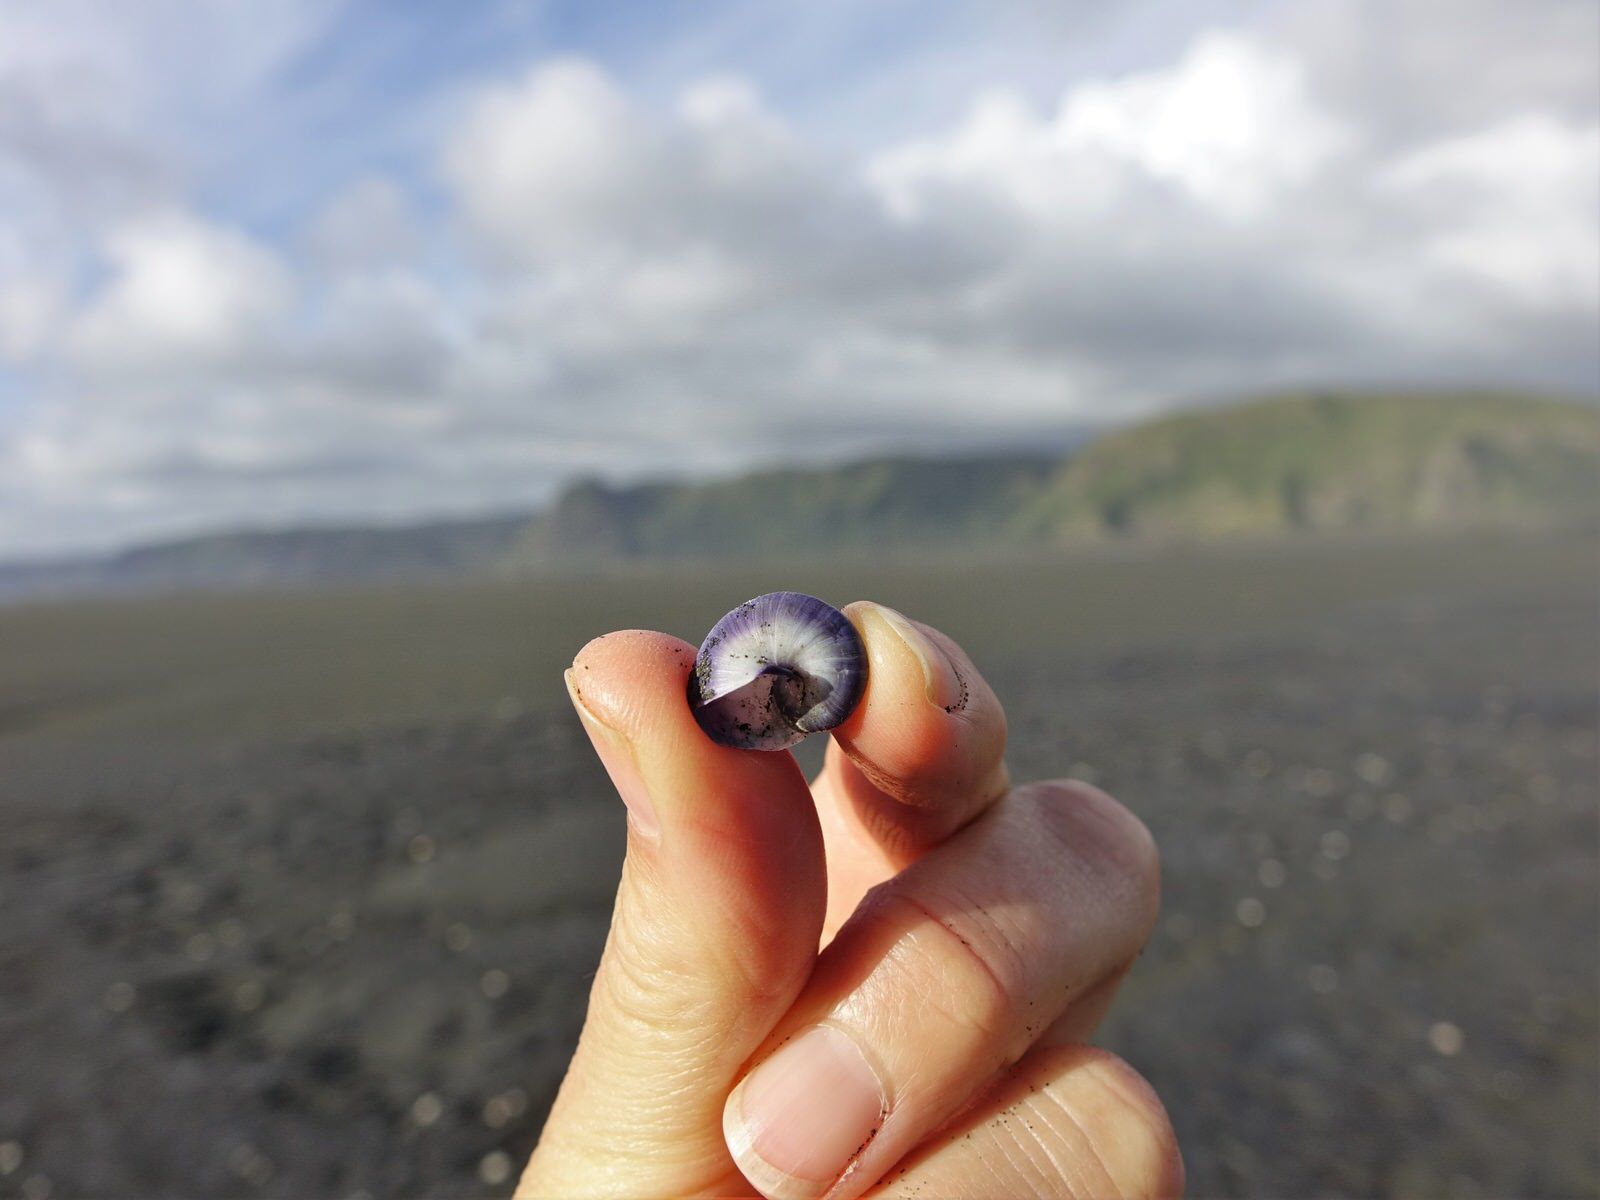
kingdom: Animalia
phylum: Mollusca
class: Gastropoda
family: Epitoniidae
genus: Janthina
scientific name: Janthina janthina
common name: Common janthina
